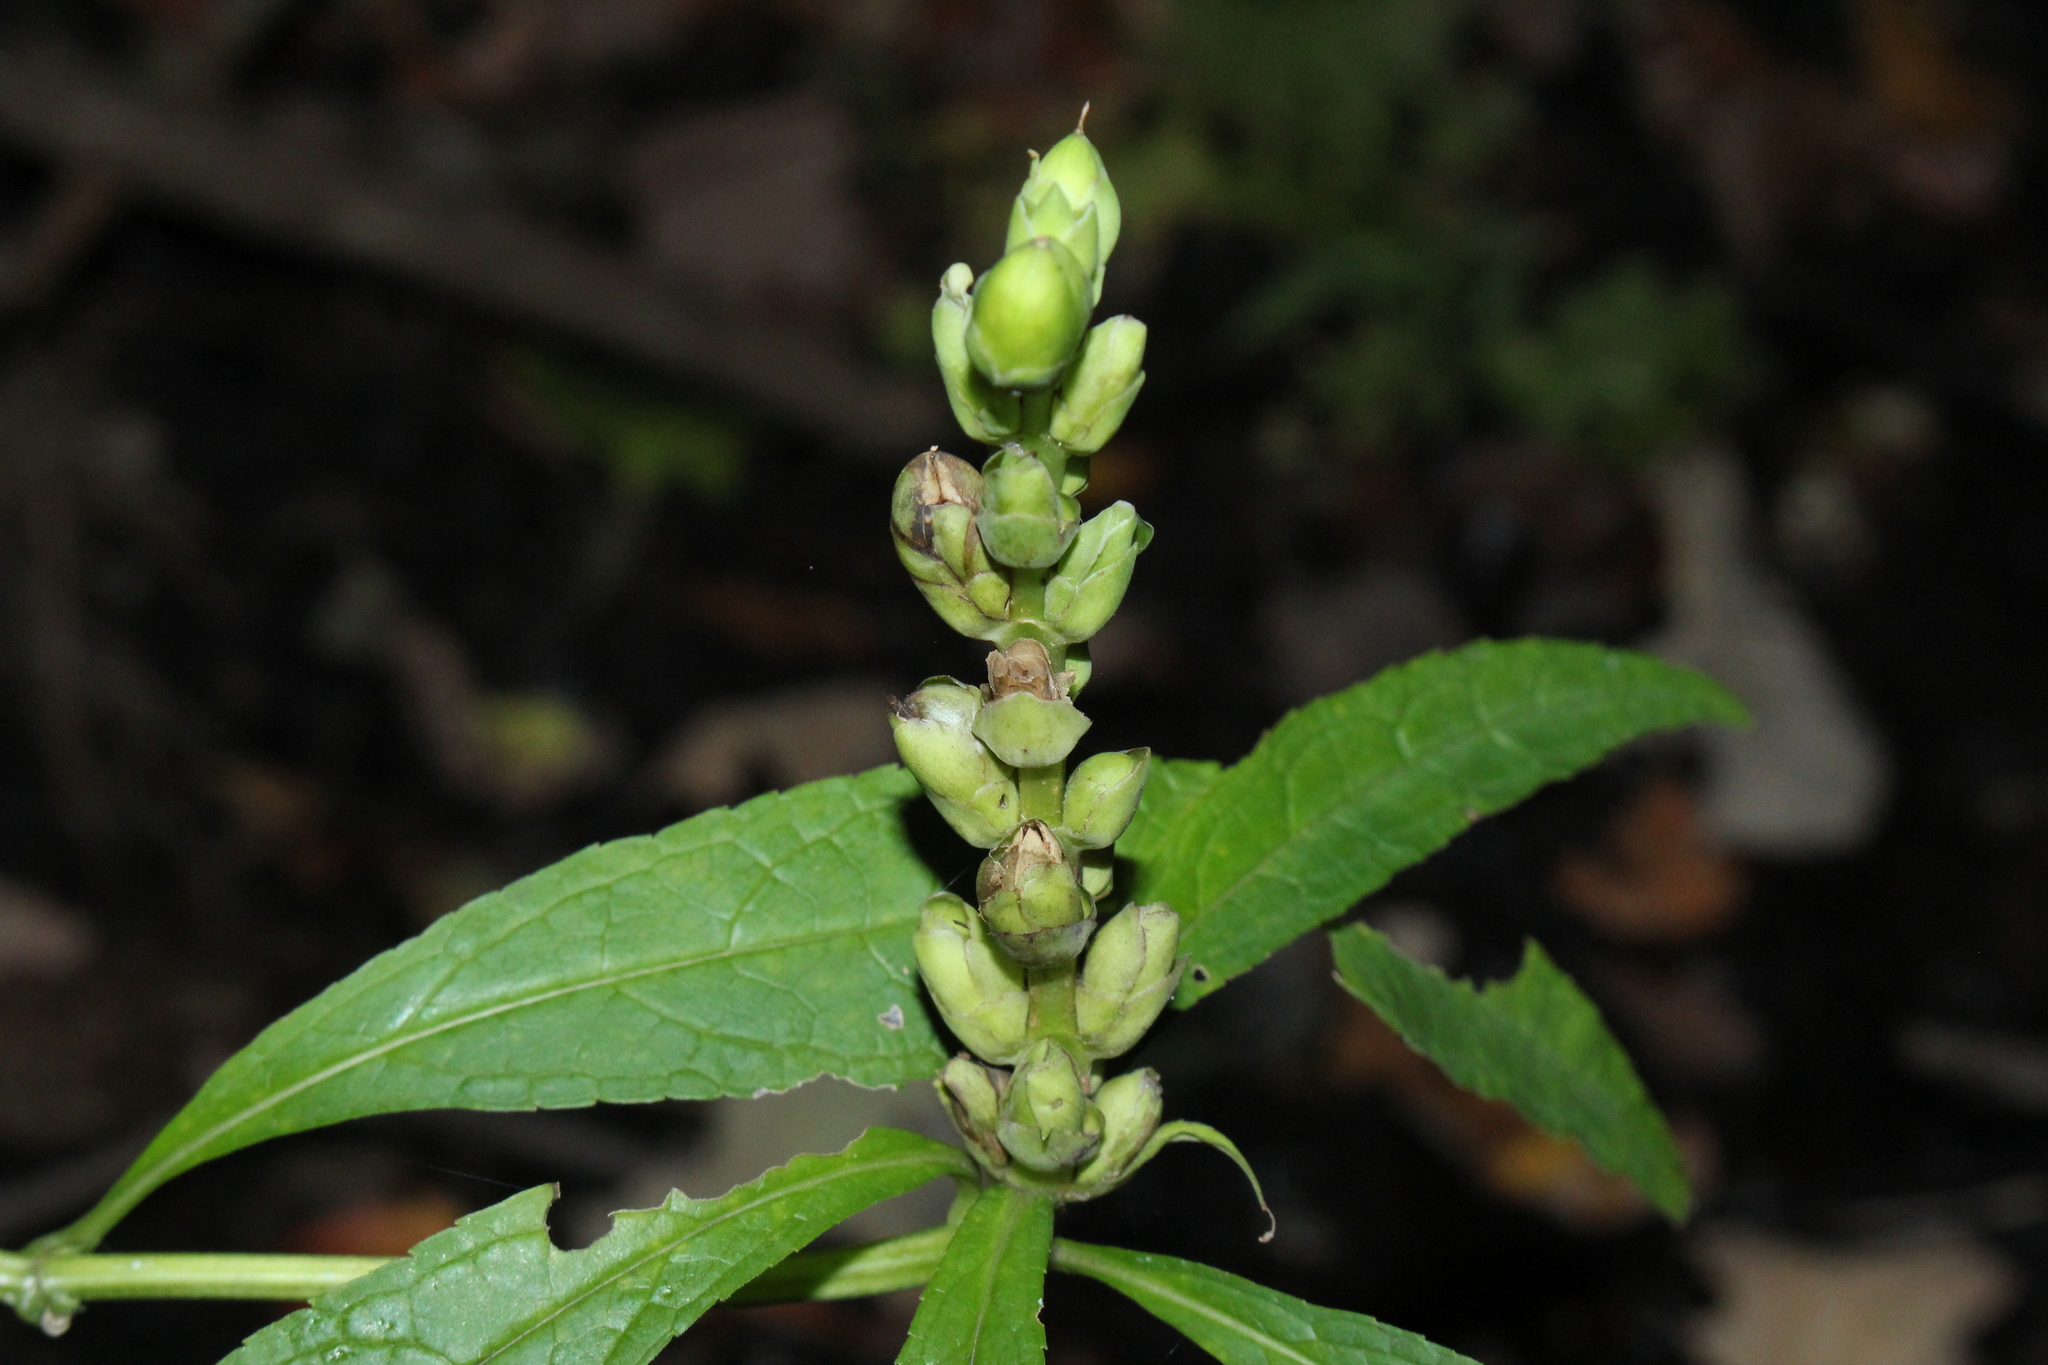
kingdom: Plantae
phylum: Tracheophyta
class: Magnoliopsida
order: Lamiales
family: Plantaginaceae
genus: Chelone
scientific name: Chelone glabra
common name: Snakehead
